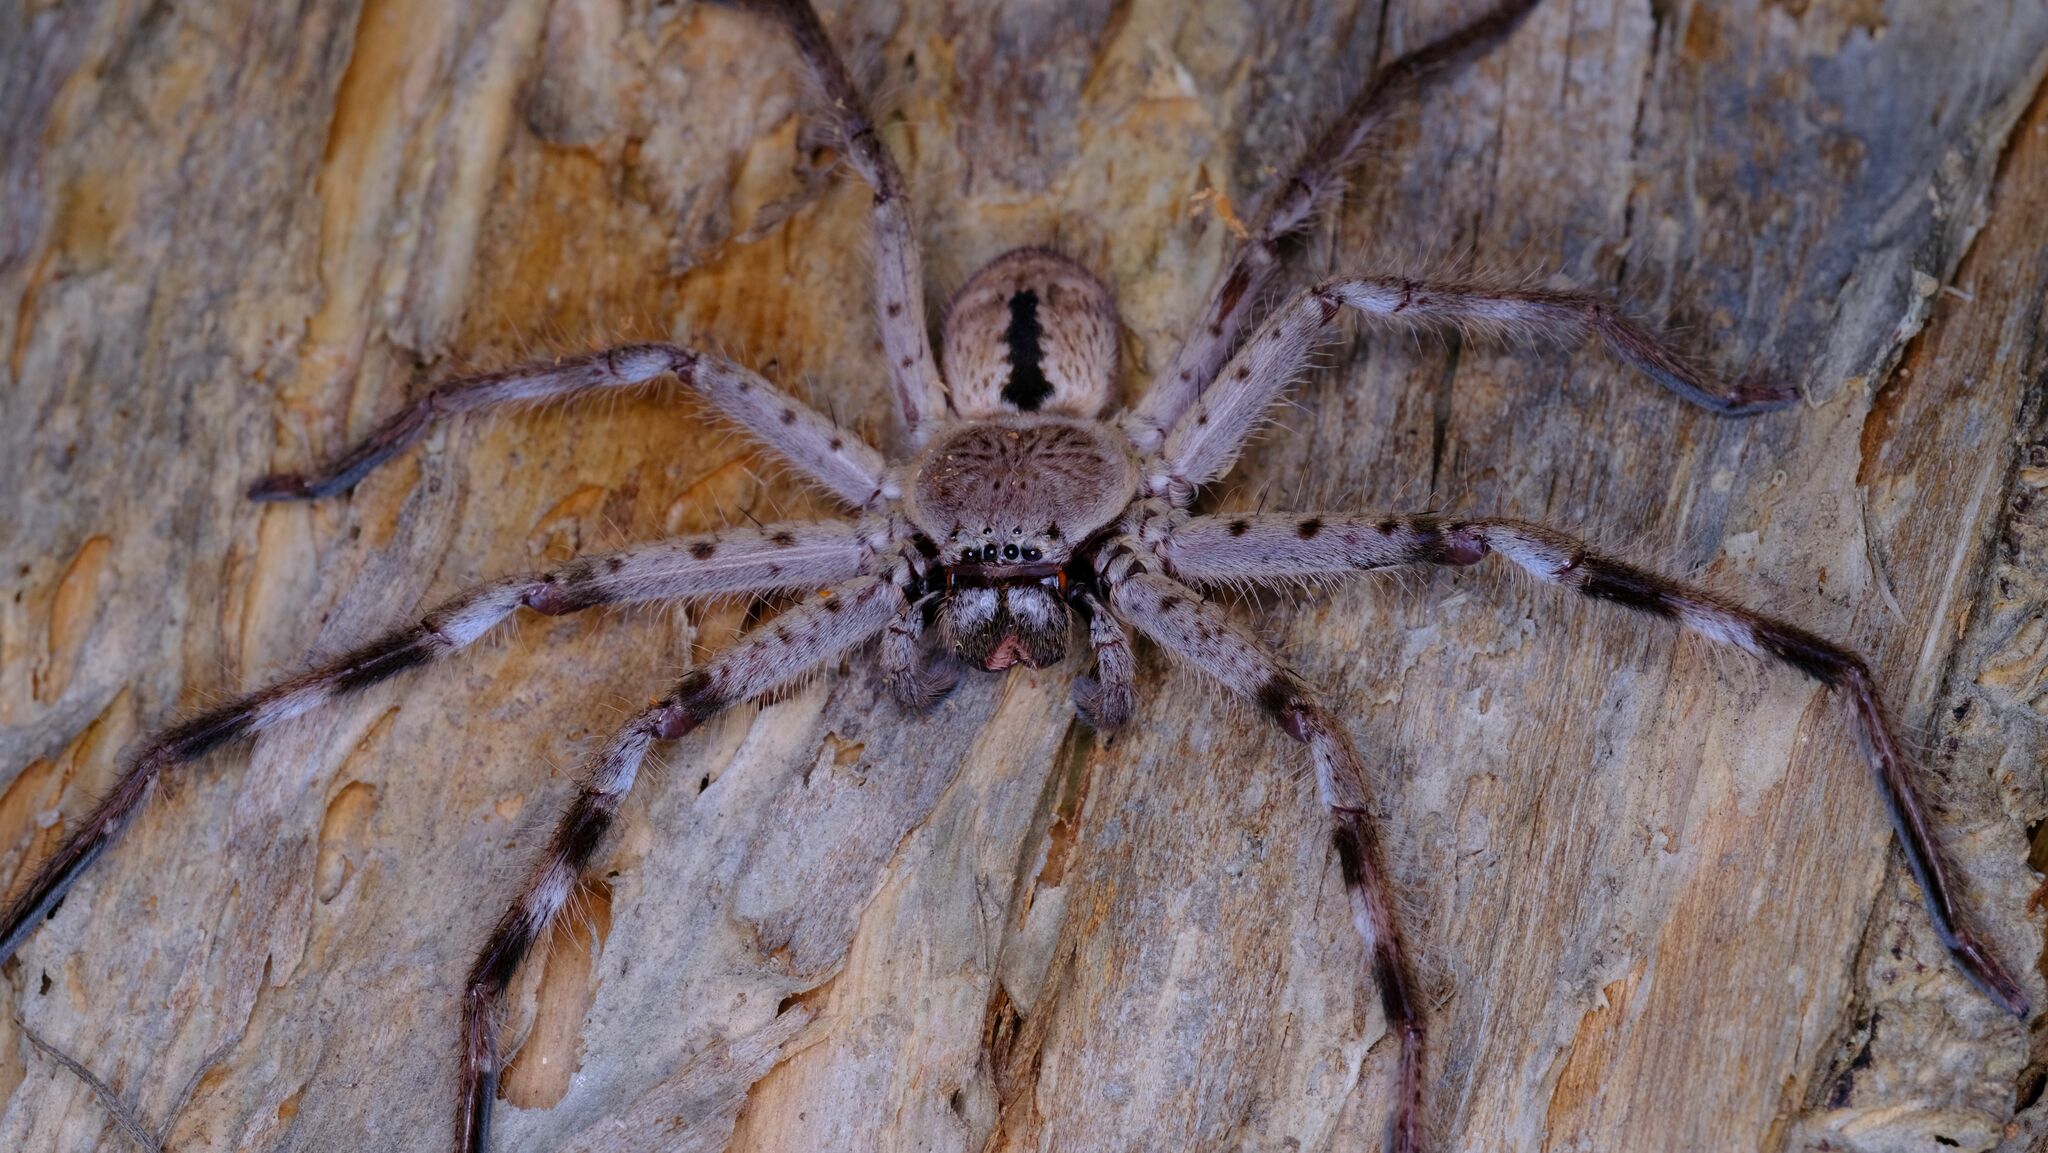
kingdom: Animalia
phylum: Arthropoda
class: Arachnida
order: Araneae
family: Sparassidae
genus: Holconia
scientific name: Holconia immanis
